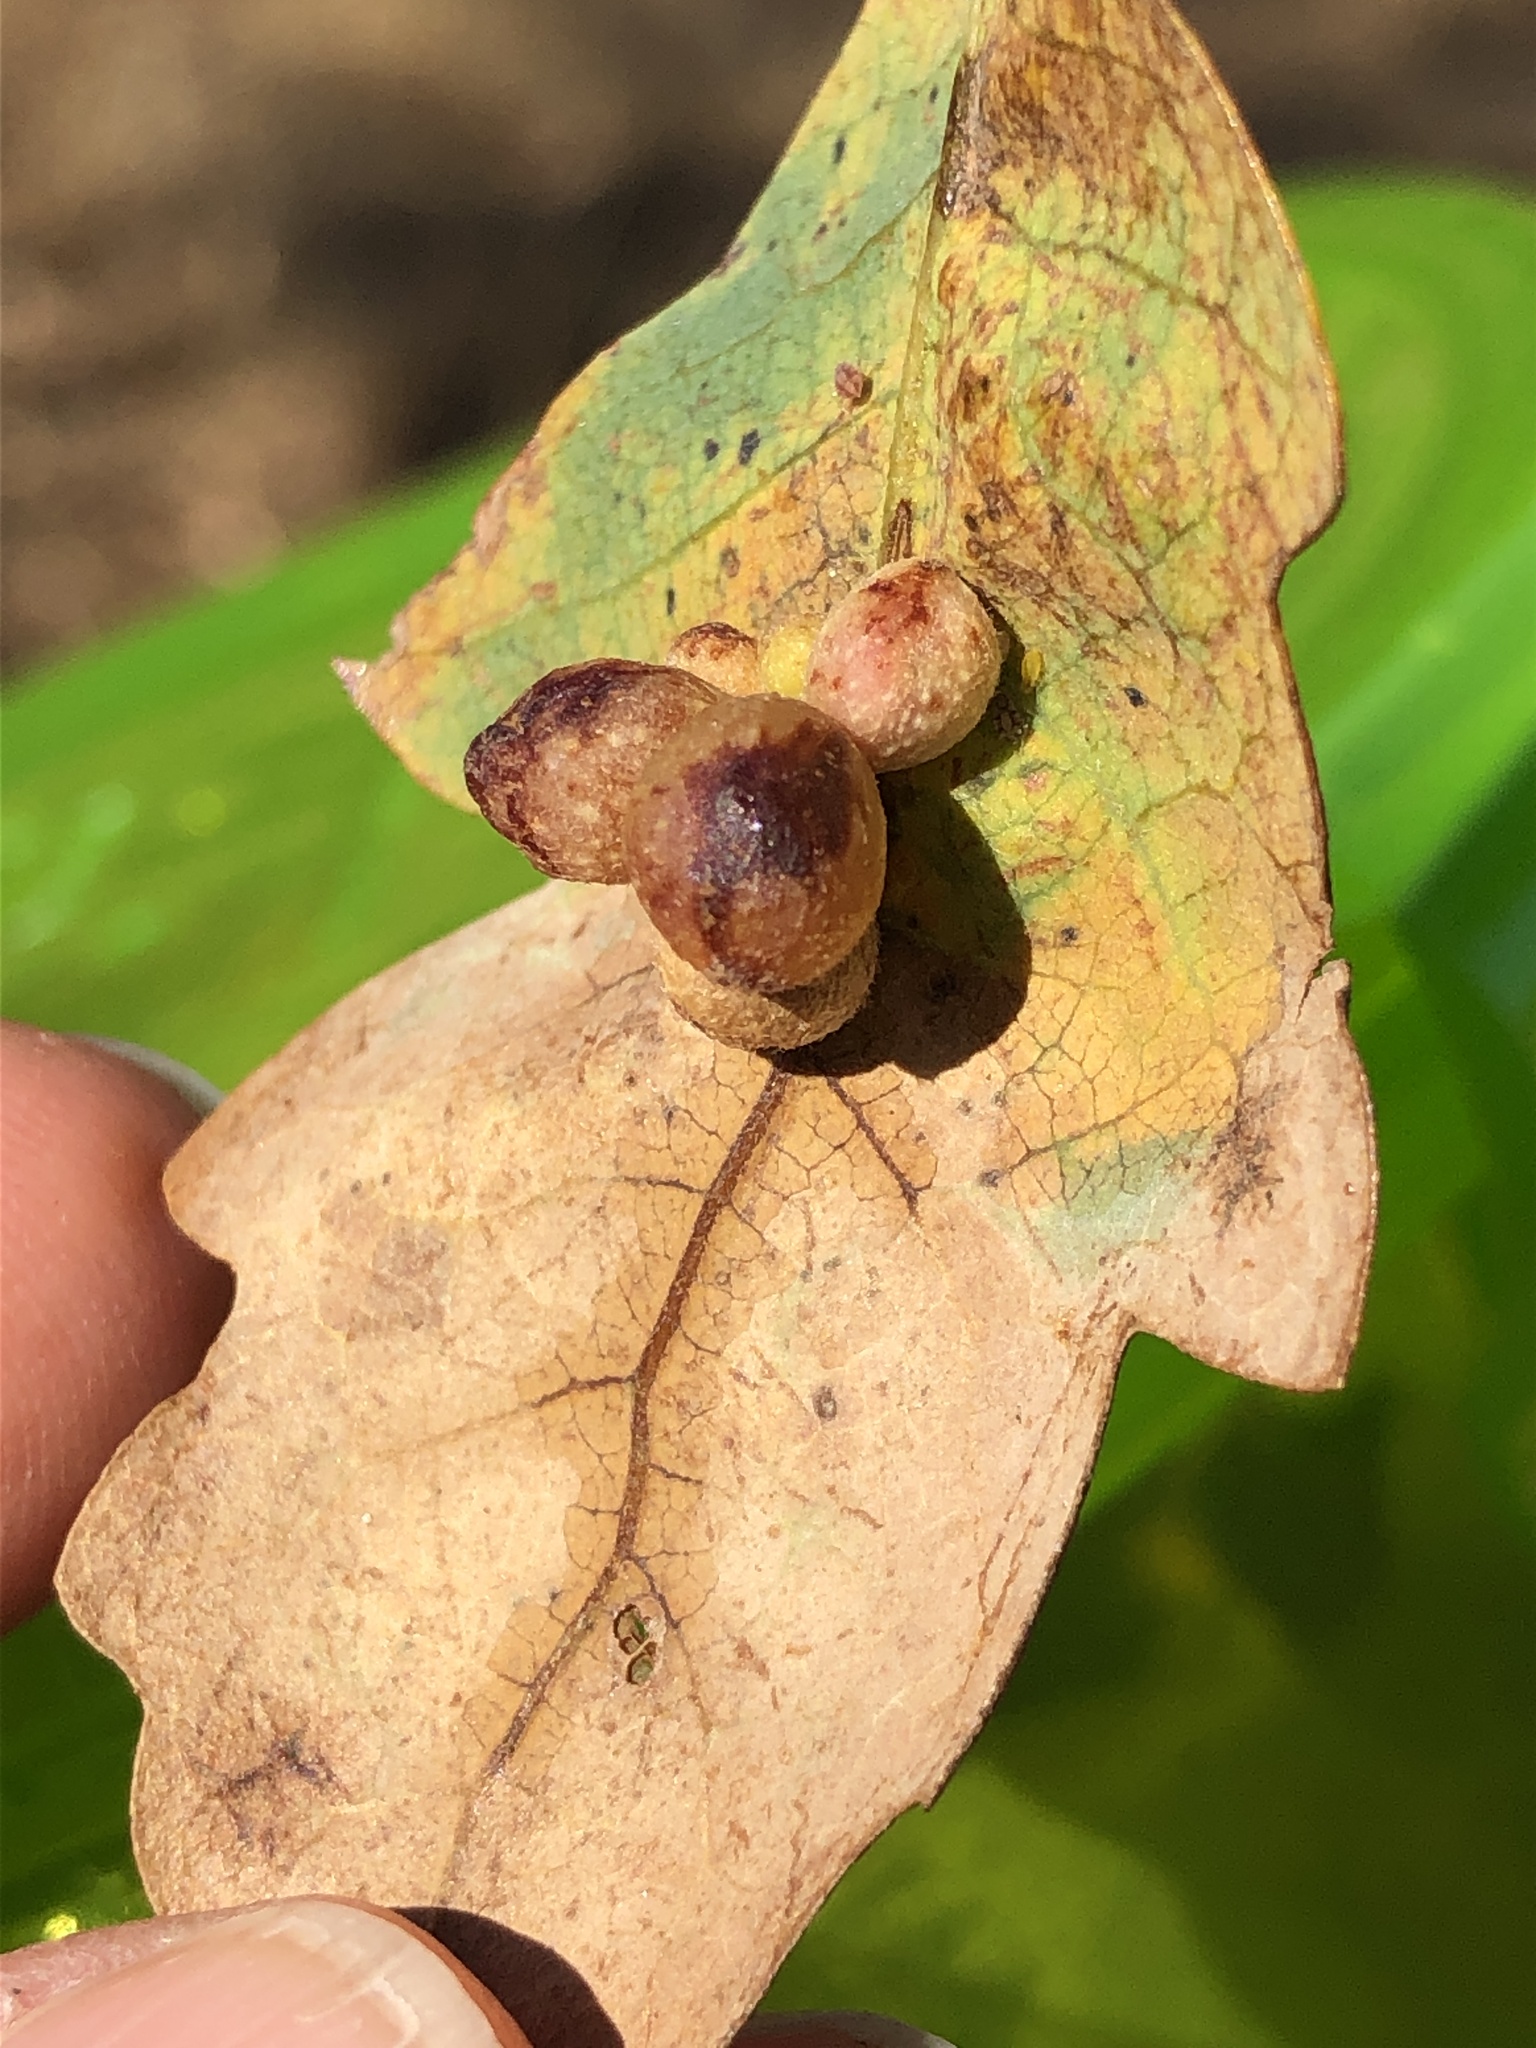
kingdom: Animalia
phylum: Arthropoda
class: Insecta
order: Hymenoptera
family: Cynipidae
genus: Andricus
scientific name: Andricus
